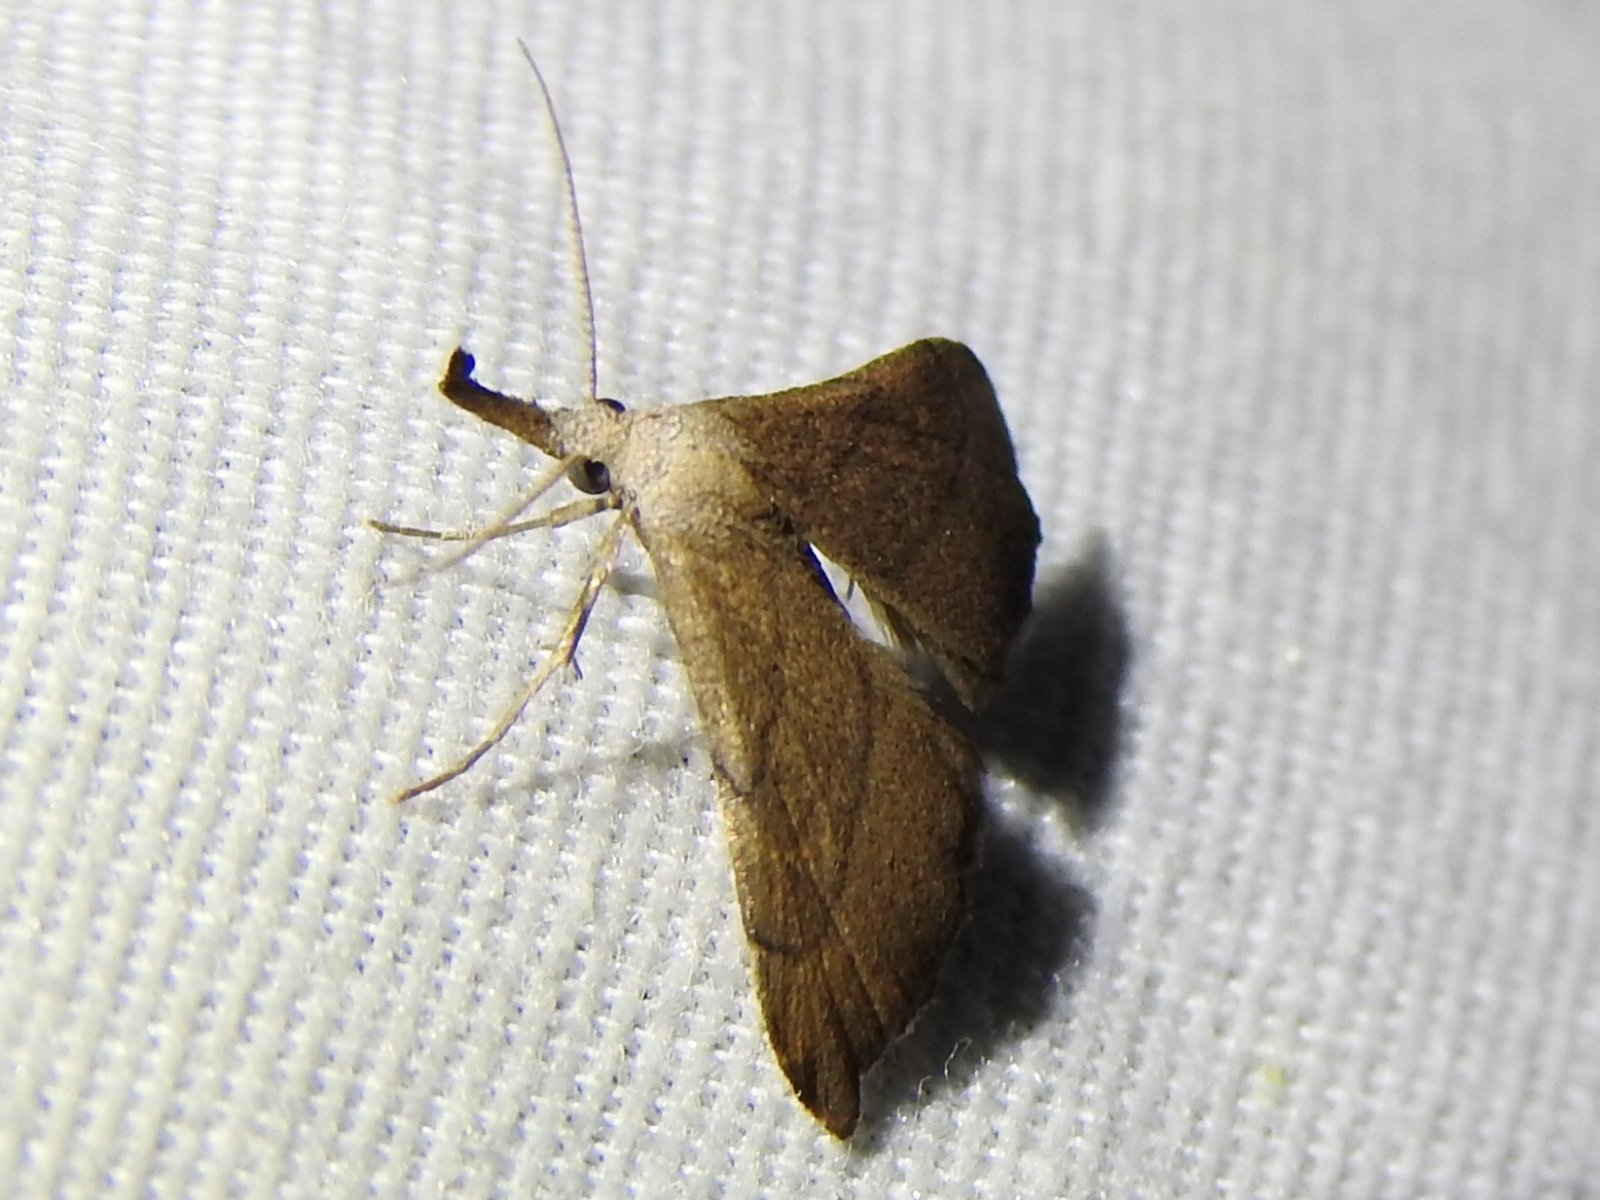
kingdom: Animalia
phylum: Arthropoda
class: Insecta
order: Lepidoptera
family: Erebidae
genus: Macristis
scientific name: Macristis schausi
